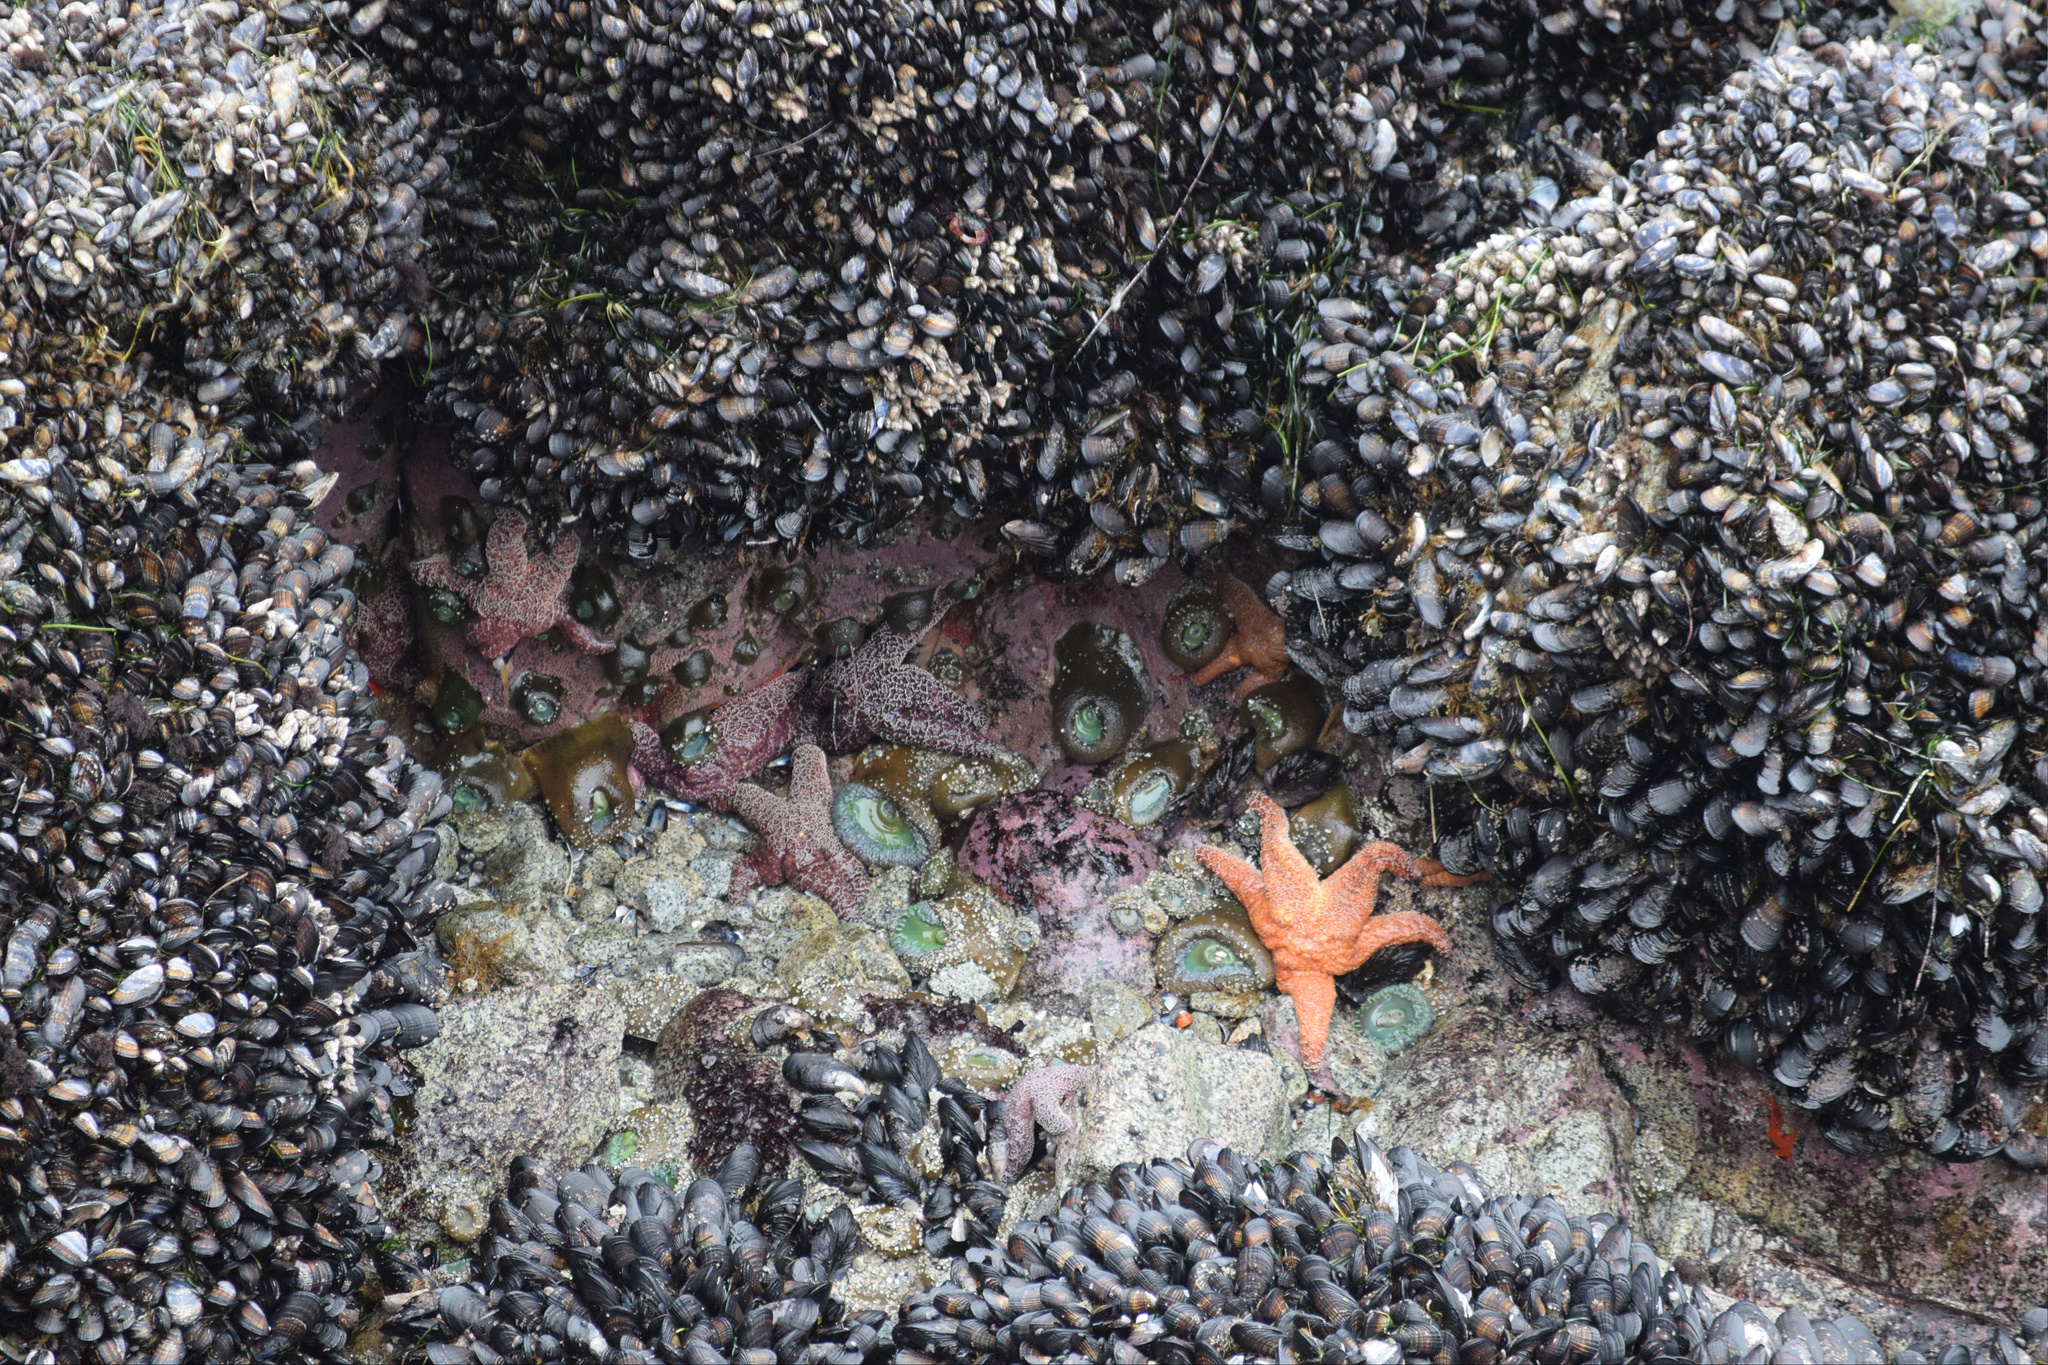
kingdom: Animalia
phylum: Echinodermata
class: Asteroidea
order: Forcipulatida
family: Asteriidae
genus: Pisaster
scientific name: Pisaster ochraceus
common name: Ochre stars
